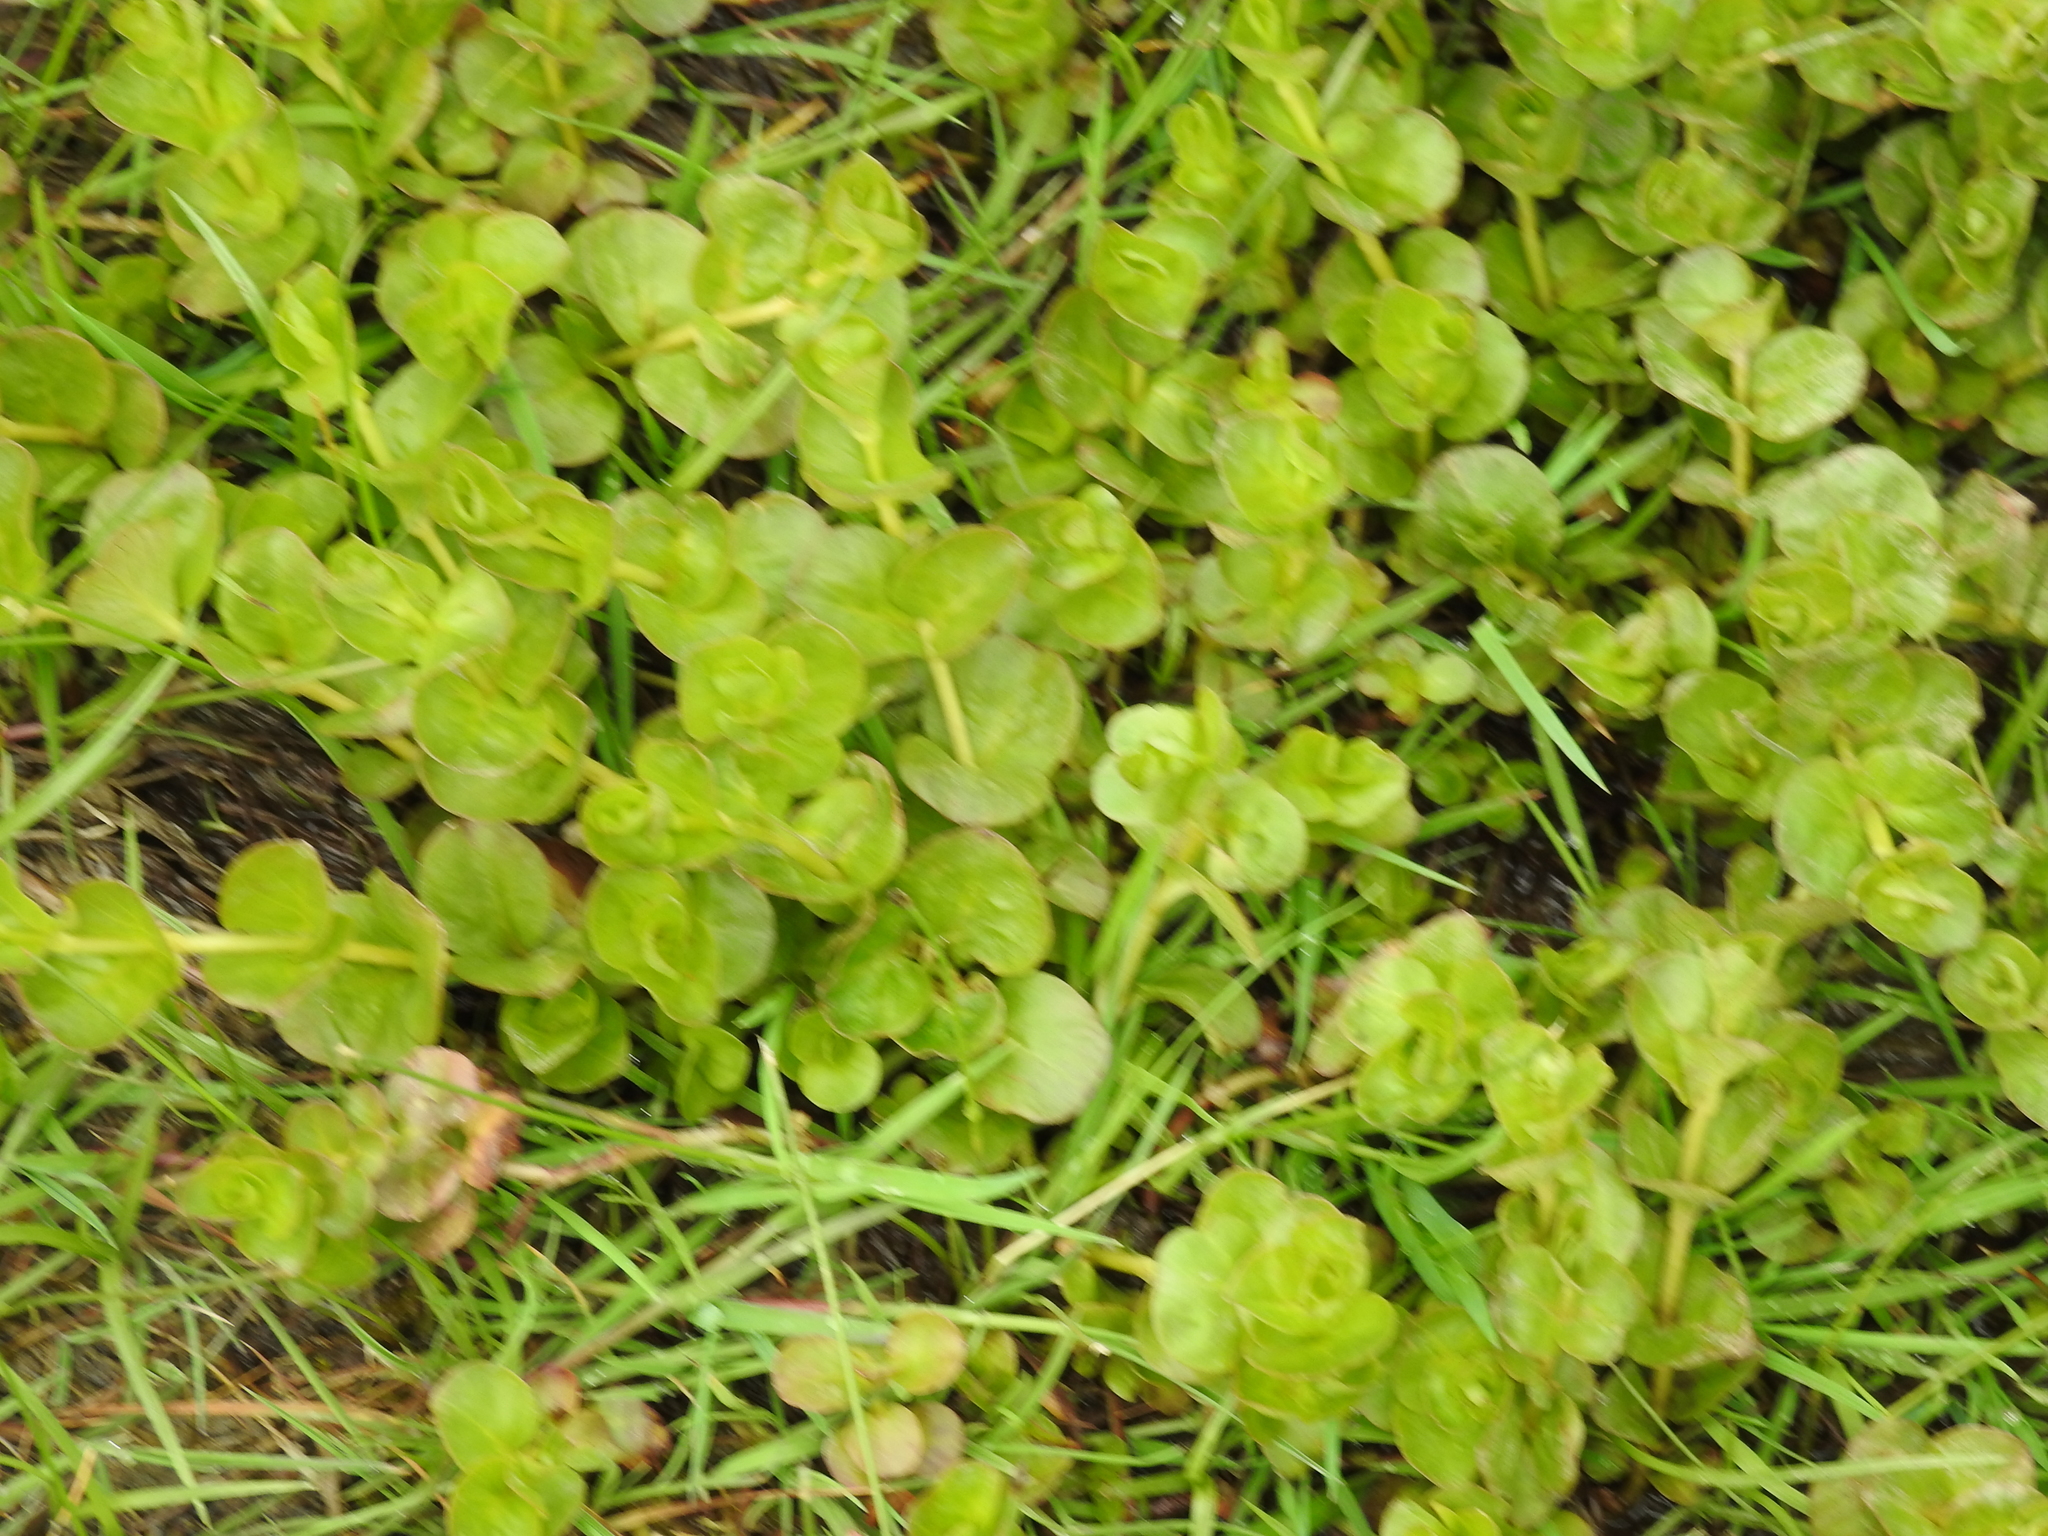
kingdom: Plantae
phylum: Tracheophyta
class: Magnoliopsida
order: Ericales
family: Primulaceae
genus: Lysimachia
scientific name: Lysimachia nummularia
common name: Moneywort
